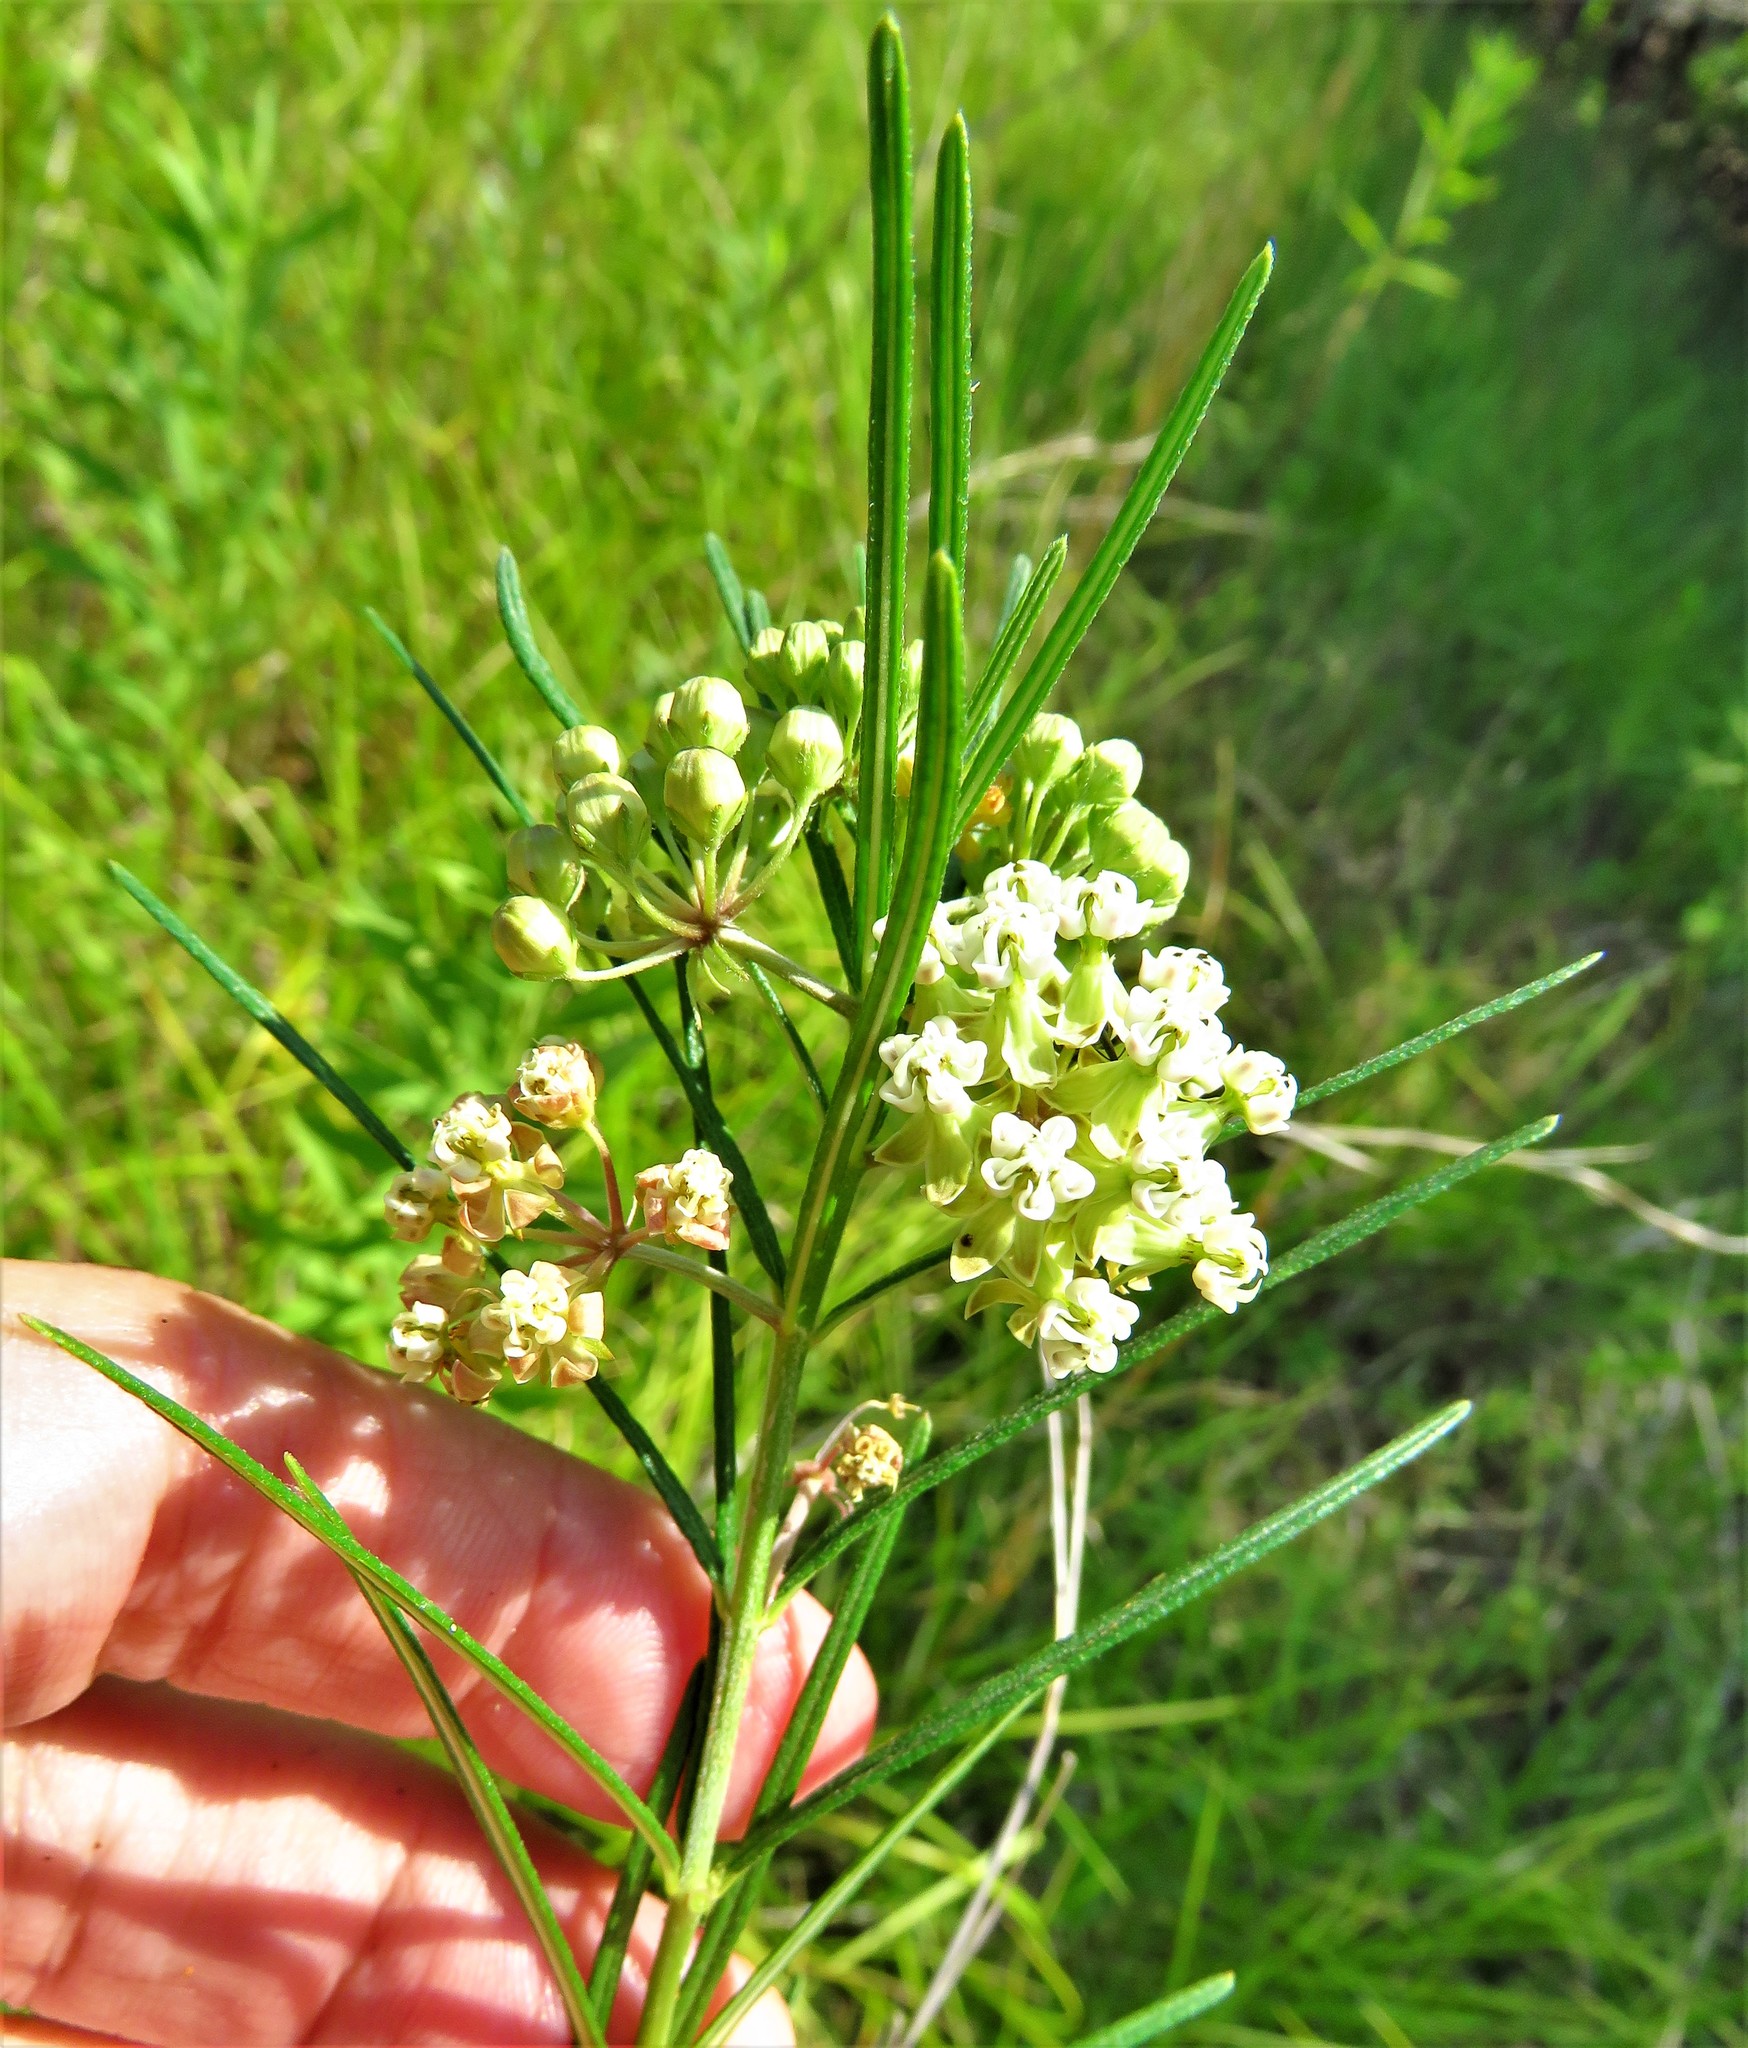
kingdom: Plantae
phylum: Tracheophyta
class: Magnoliopsida
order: Gentianales
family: Apocynaceae
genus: Asclepias
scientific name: Asclepias verticillata
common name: Eastern whorled milkweed
